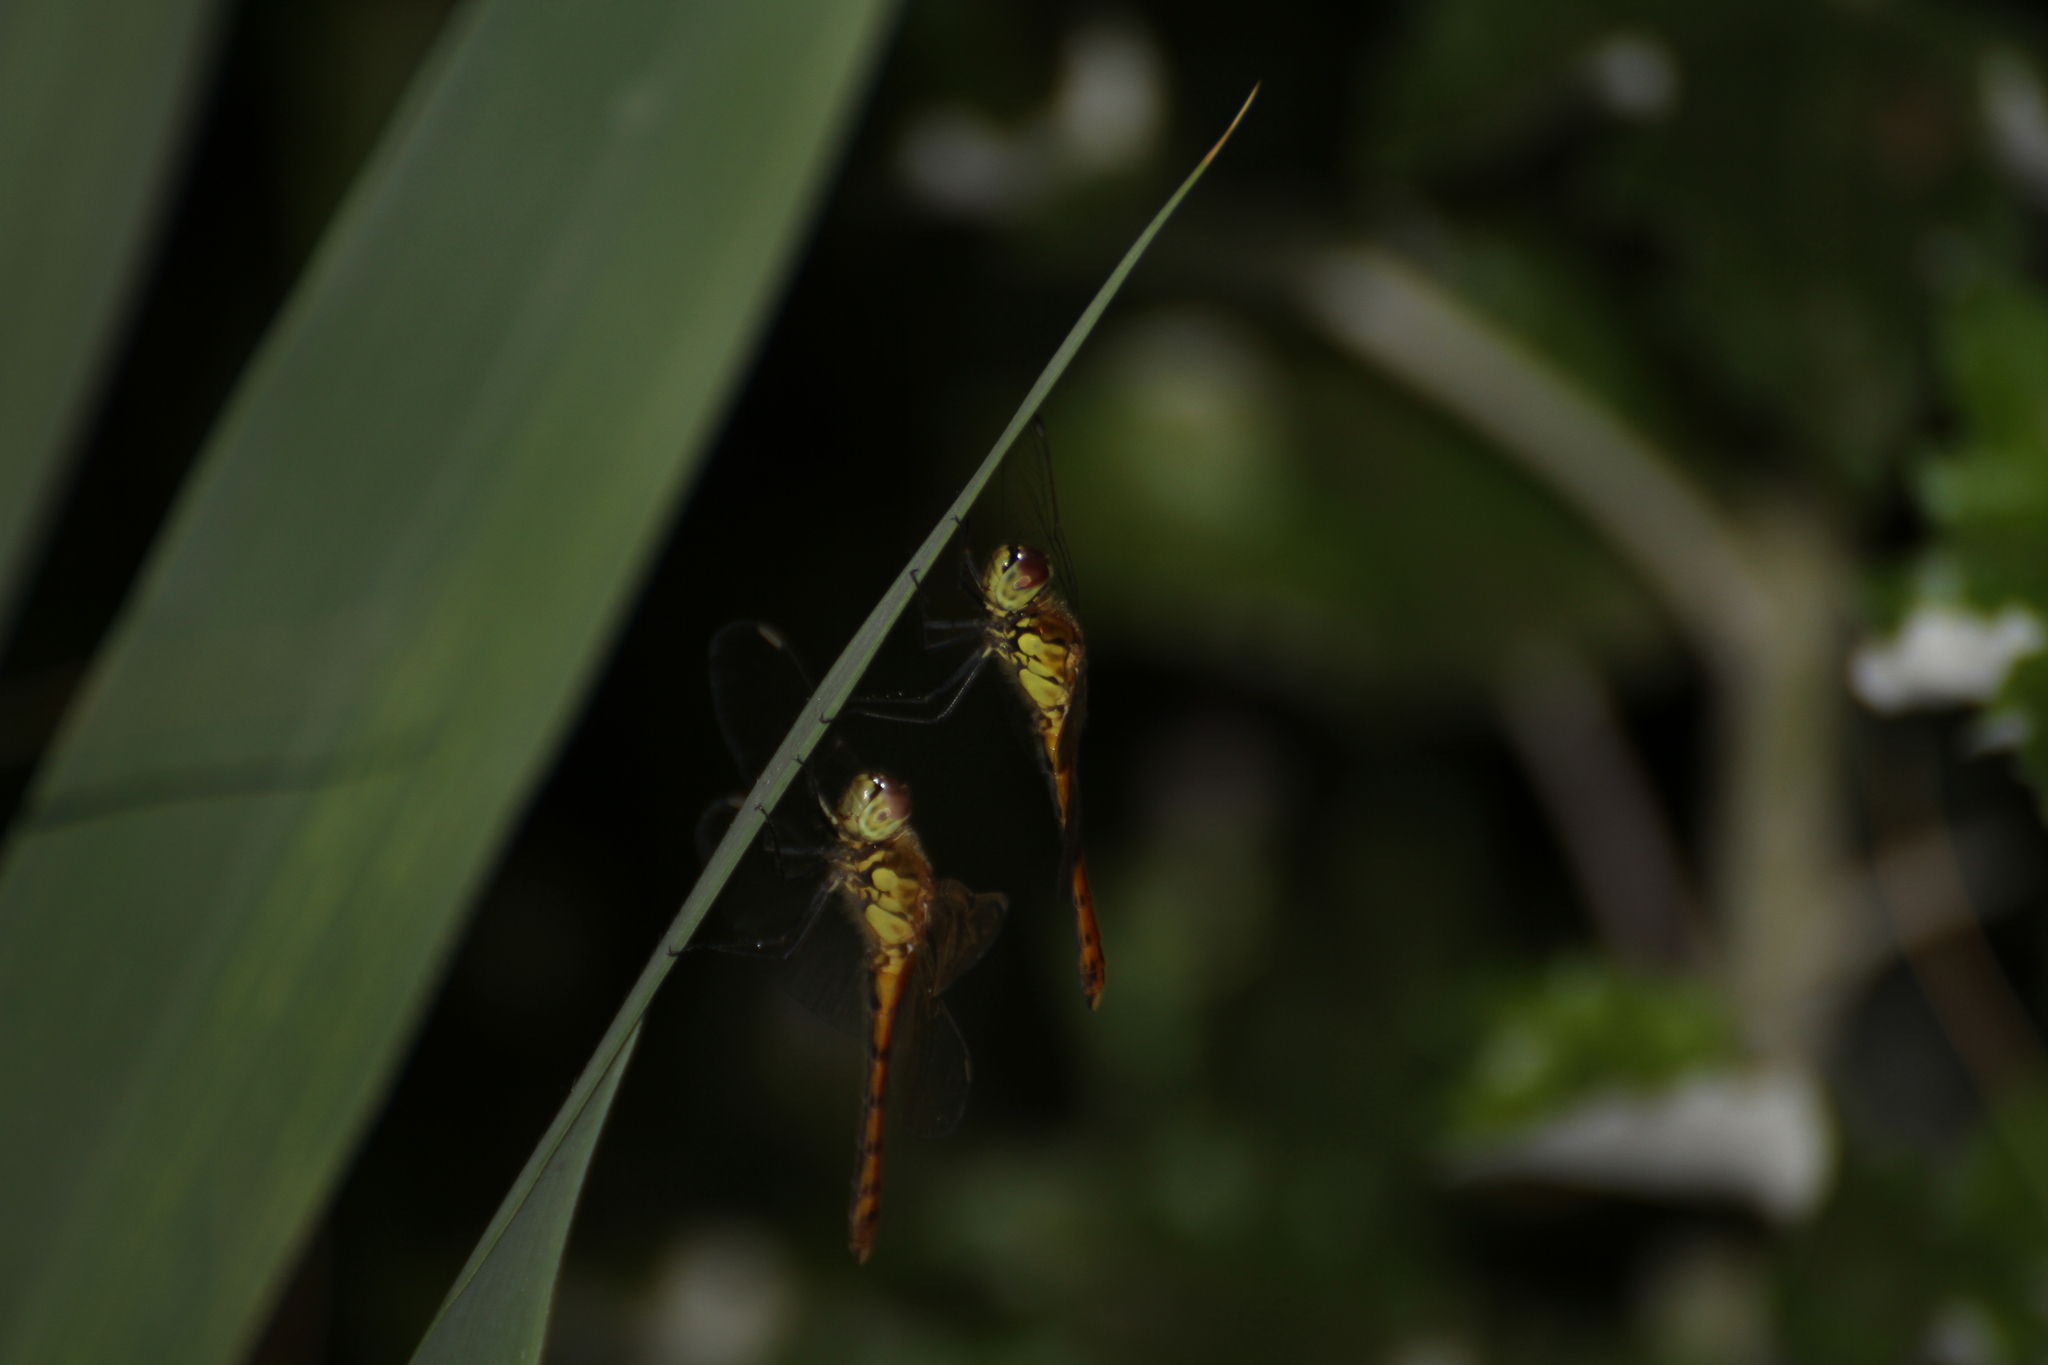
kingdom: Animalia
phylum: Arthropoda
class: Insecta
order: Odonata
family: Libellulidae
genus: Sympetrum
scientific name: Sympetrum depressiusculum
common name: Spotted darter
